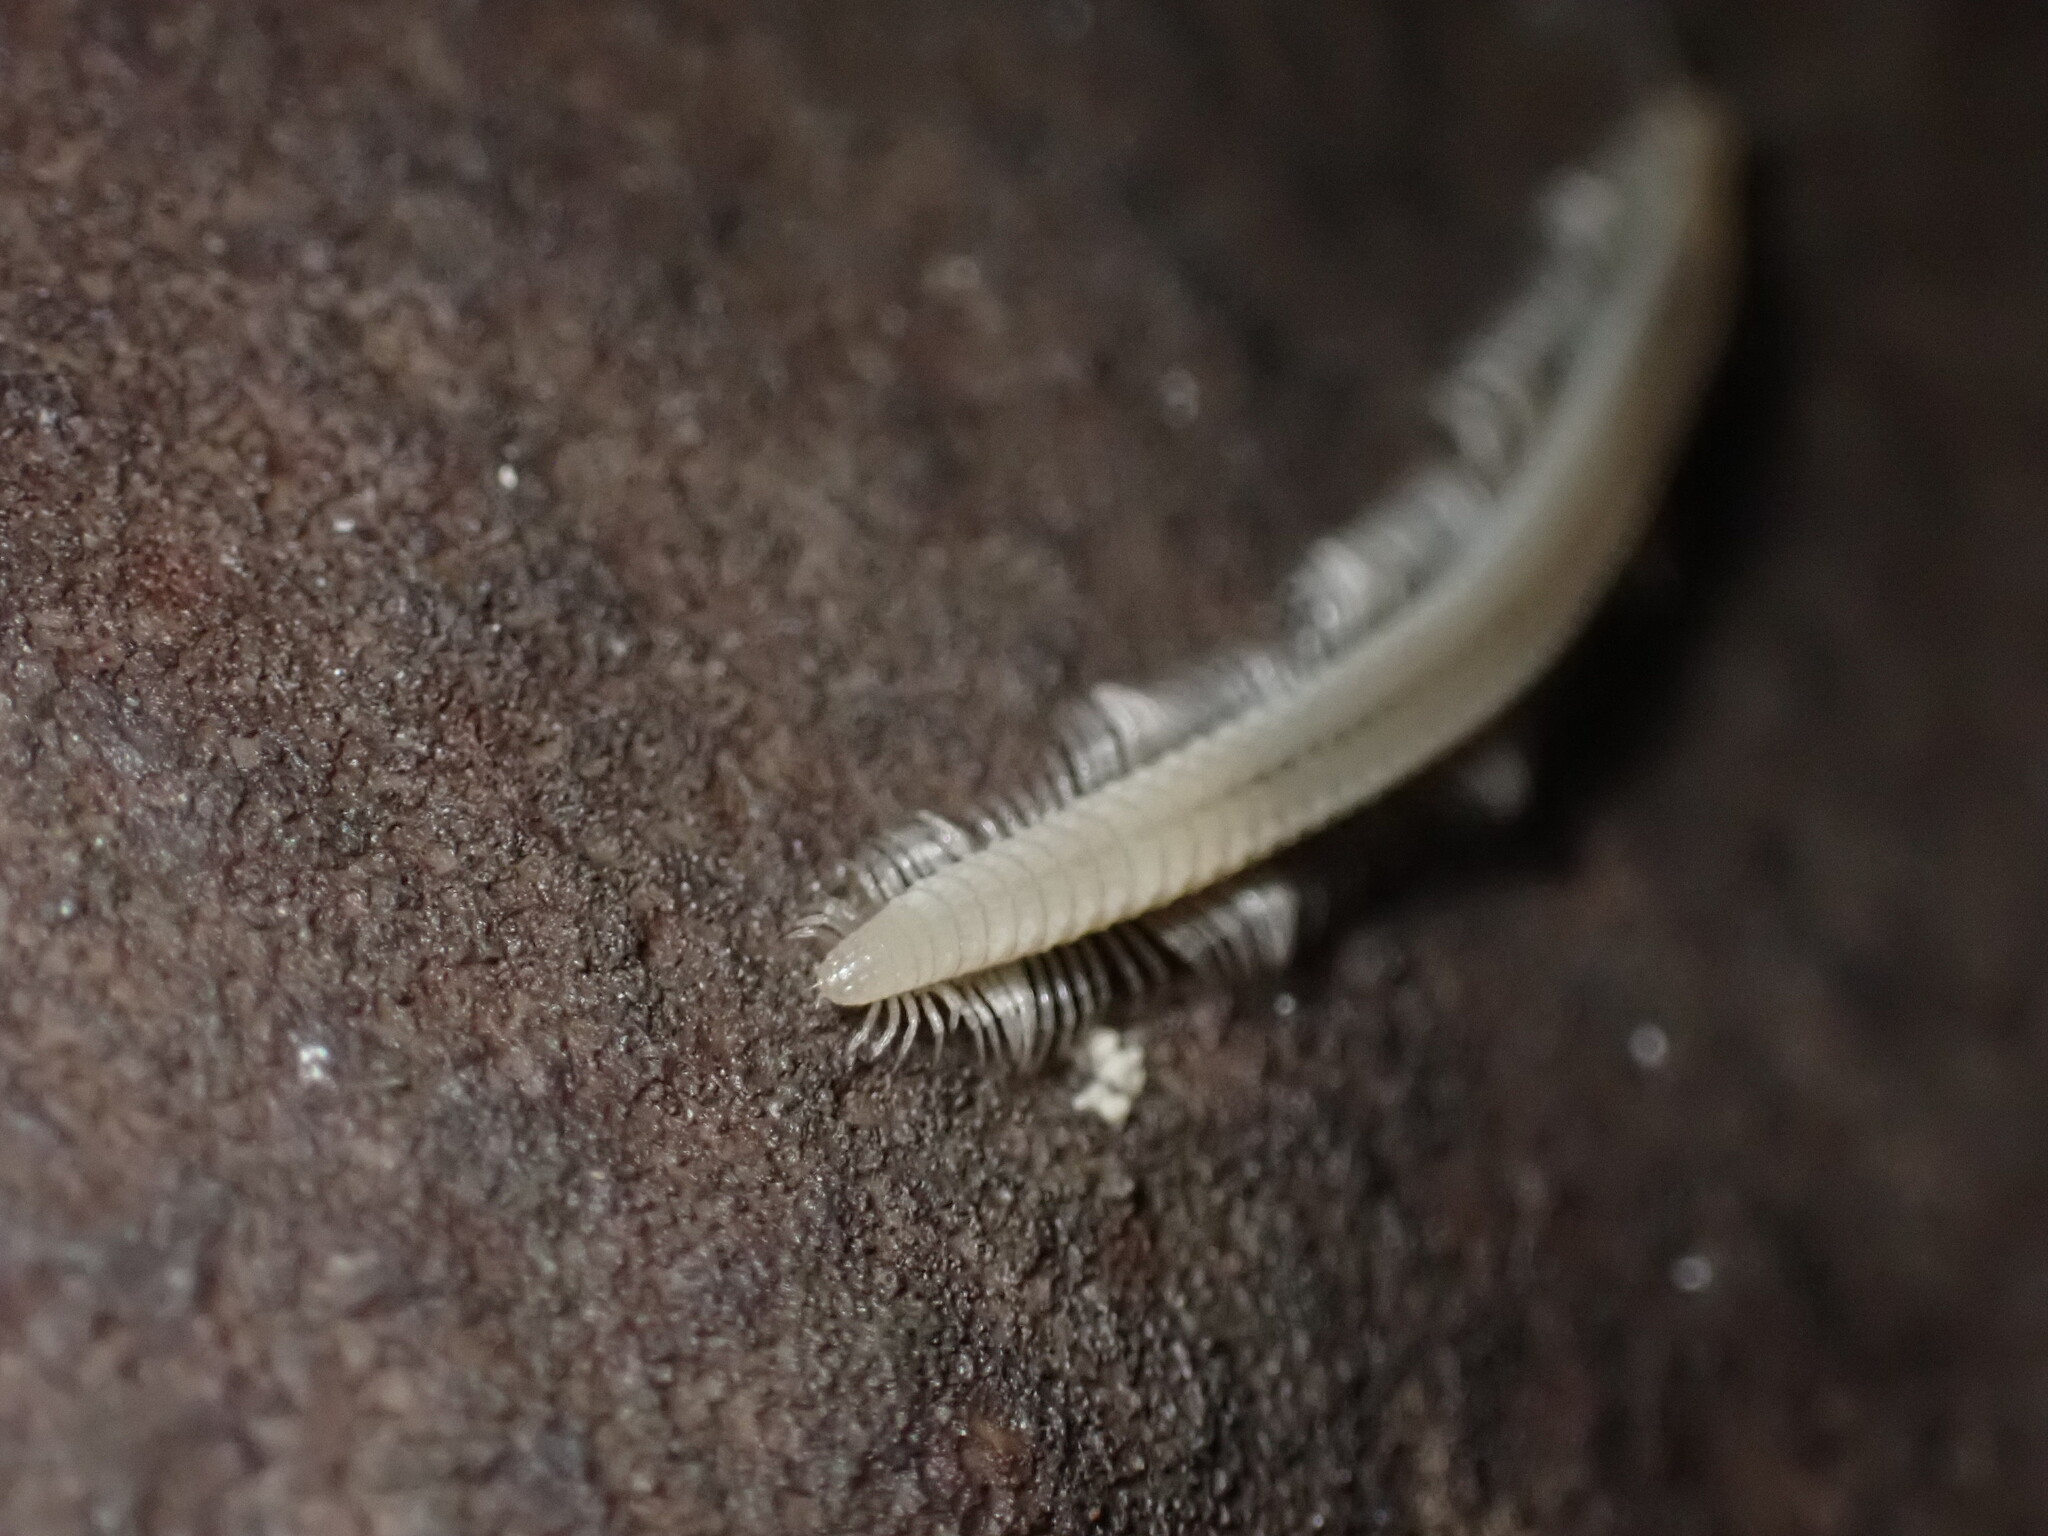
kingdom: Animalia
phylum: Arthropoda
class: Diplopoda
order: Callipodida
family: Abacionidae
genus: Tetracion
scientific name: Tetracion jonesi
